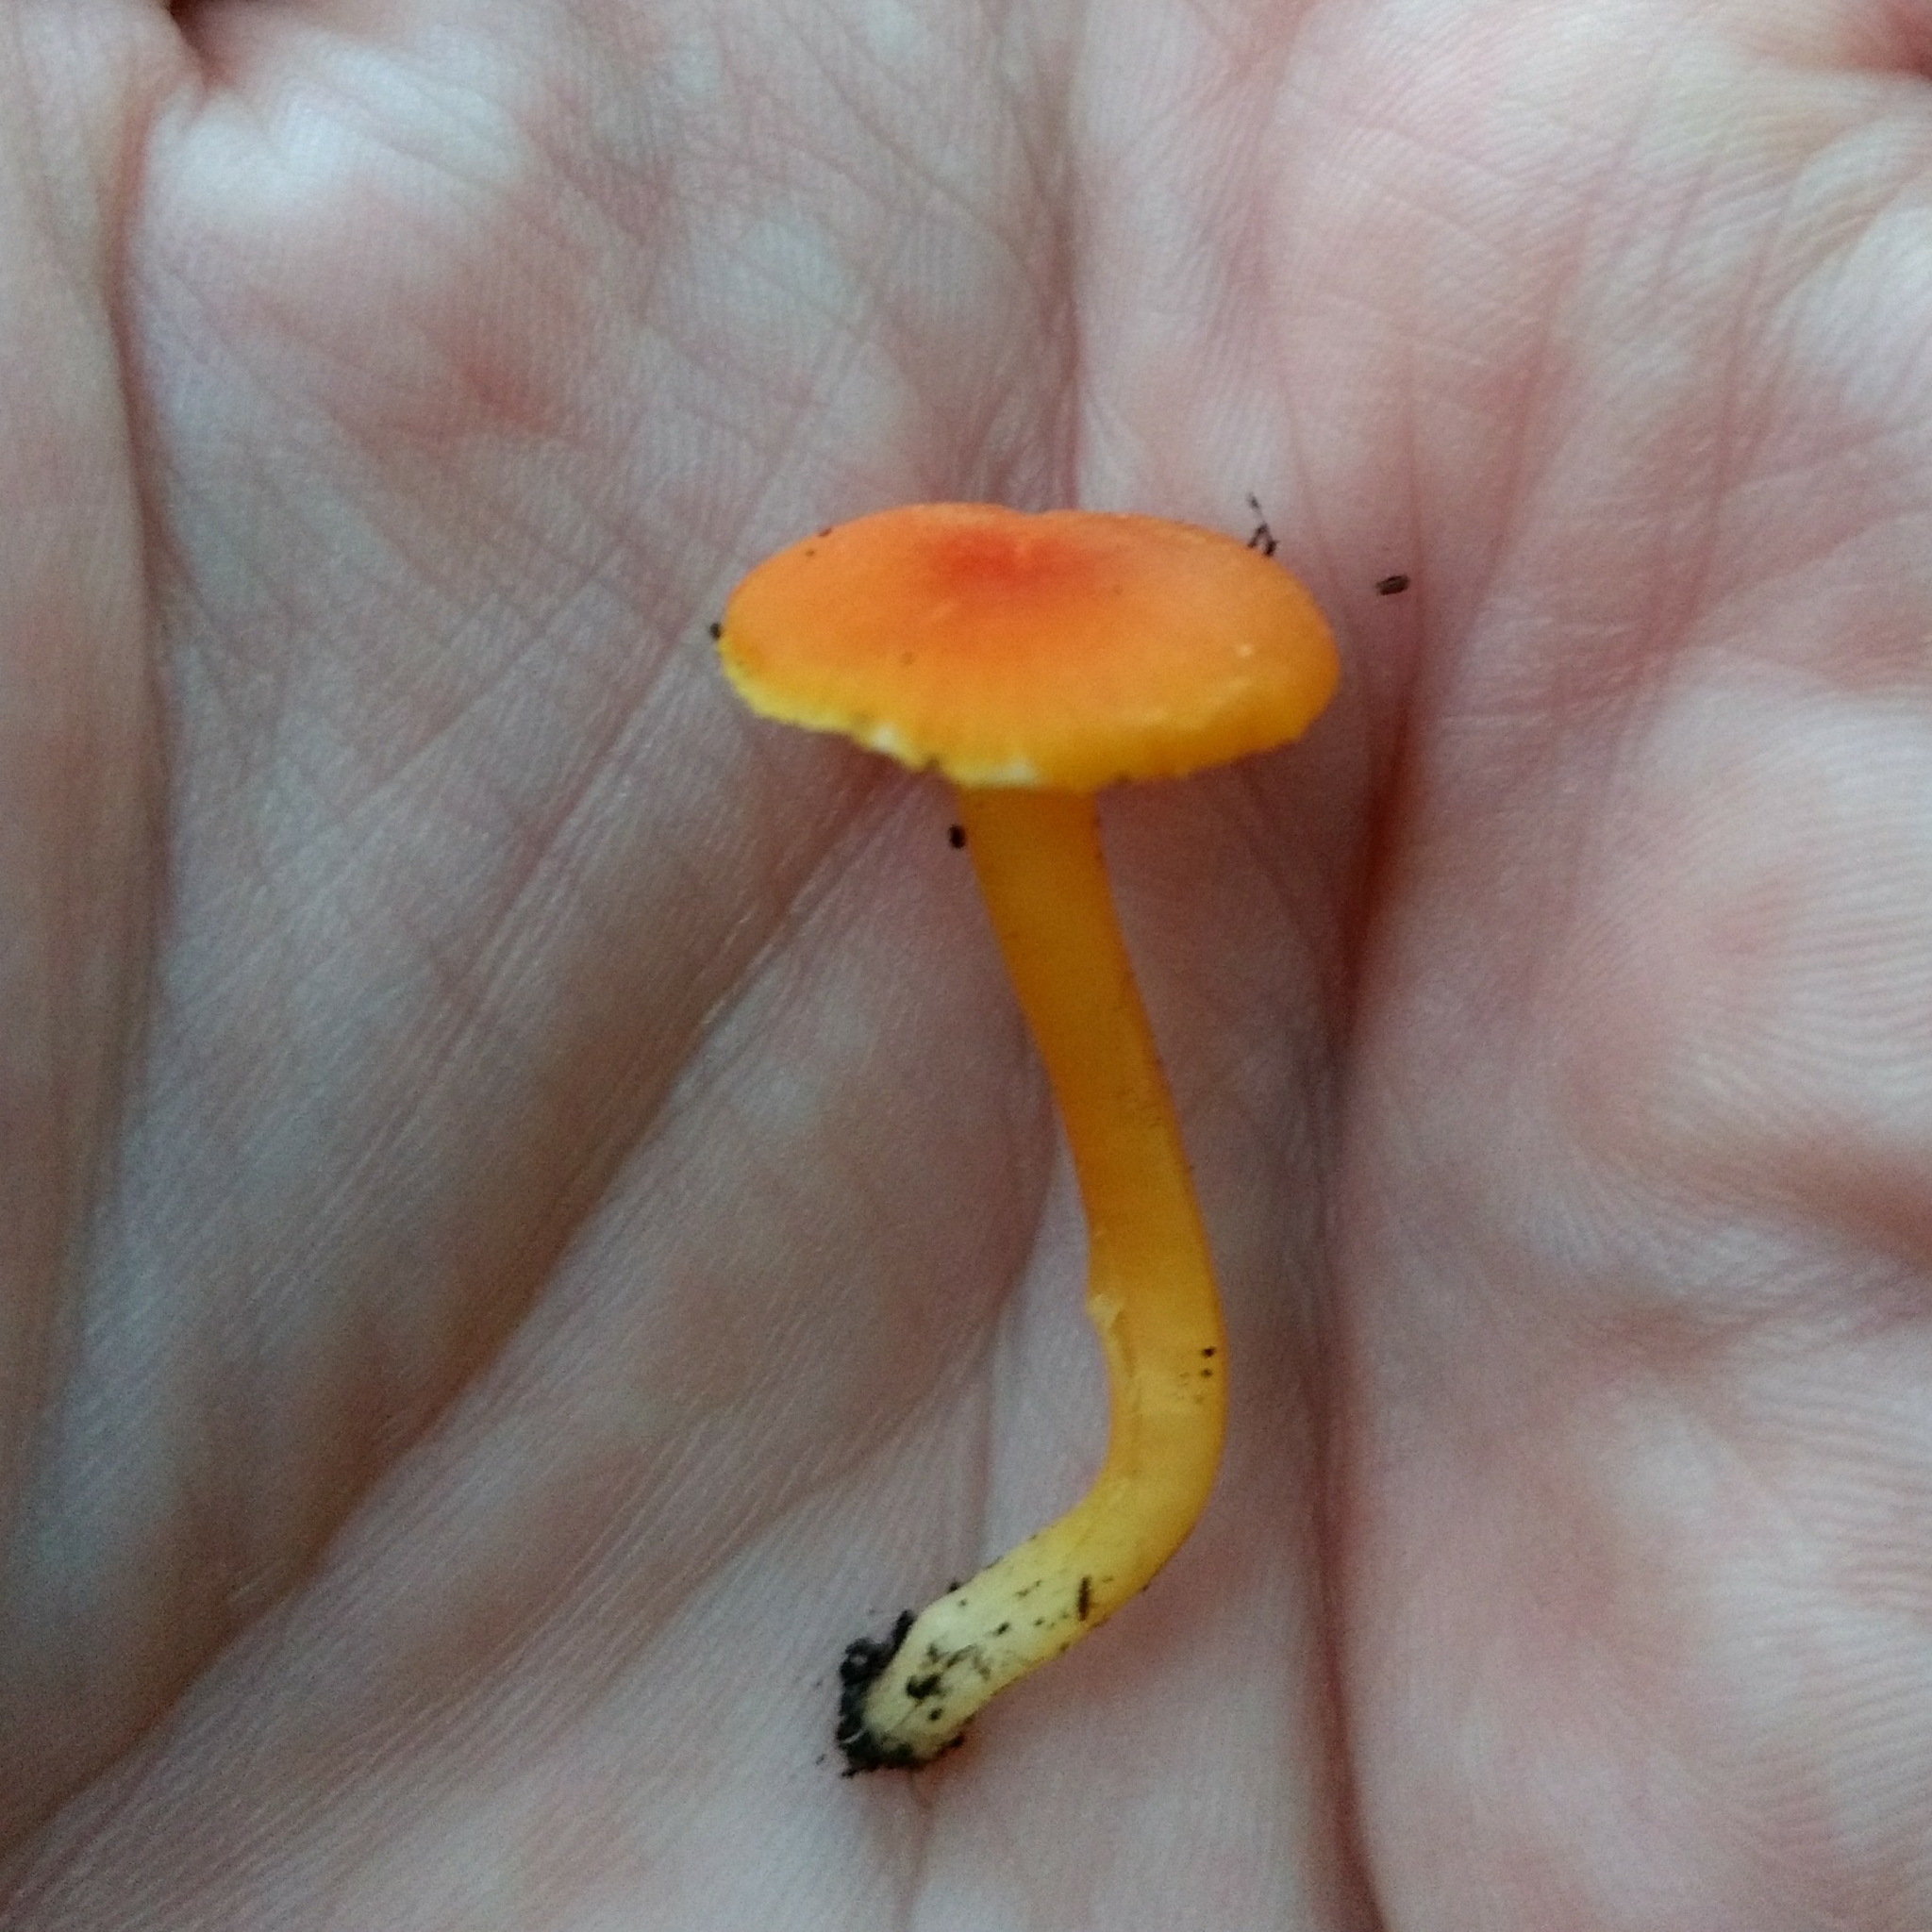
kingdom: Fungi
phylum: Basidiomycota
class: Agaricomycetes
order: Agaricales
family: Hygrophoraceae
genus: Hygrocybe
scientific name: Hygrocybe miniata
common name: Vermilion waxcap
